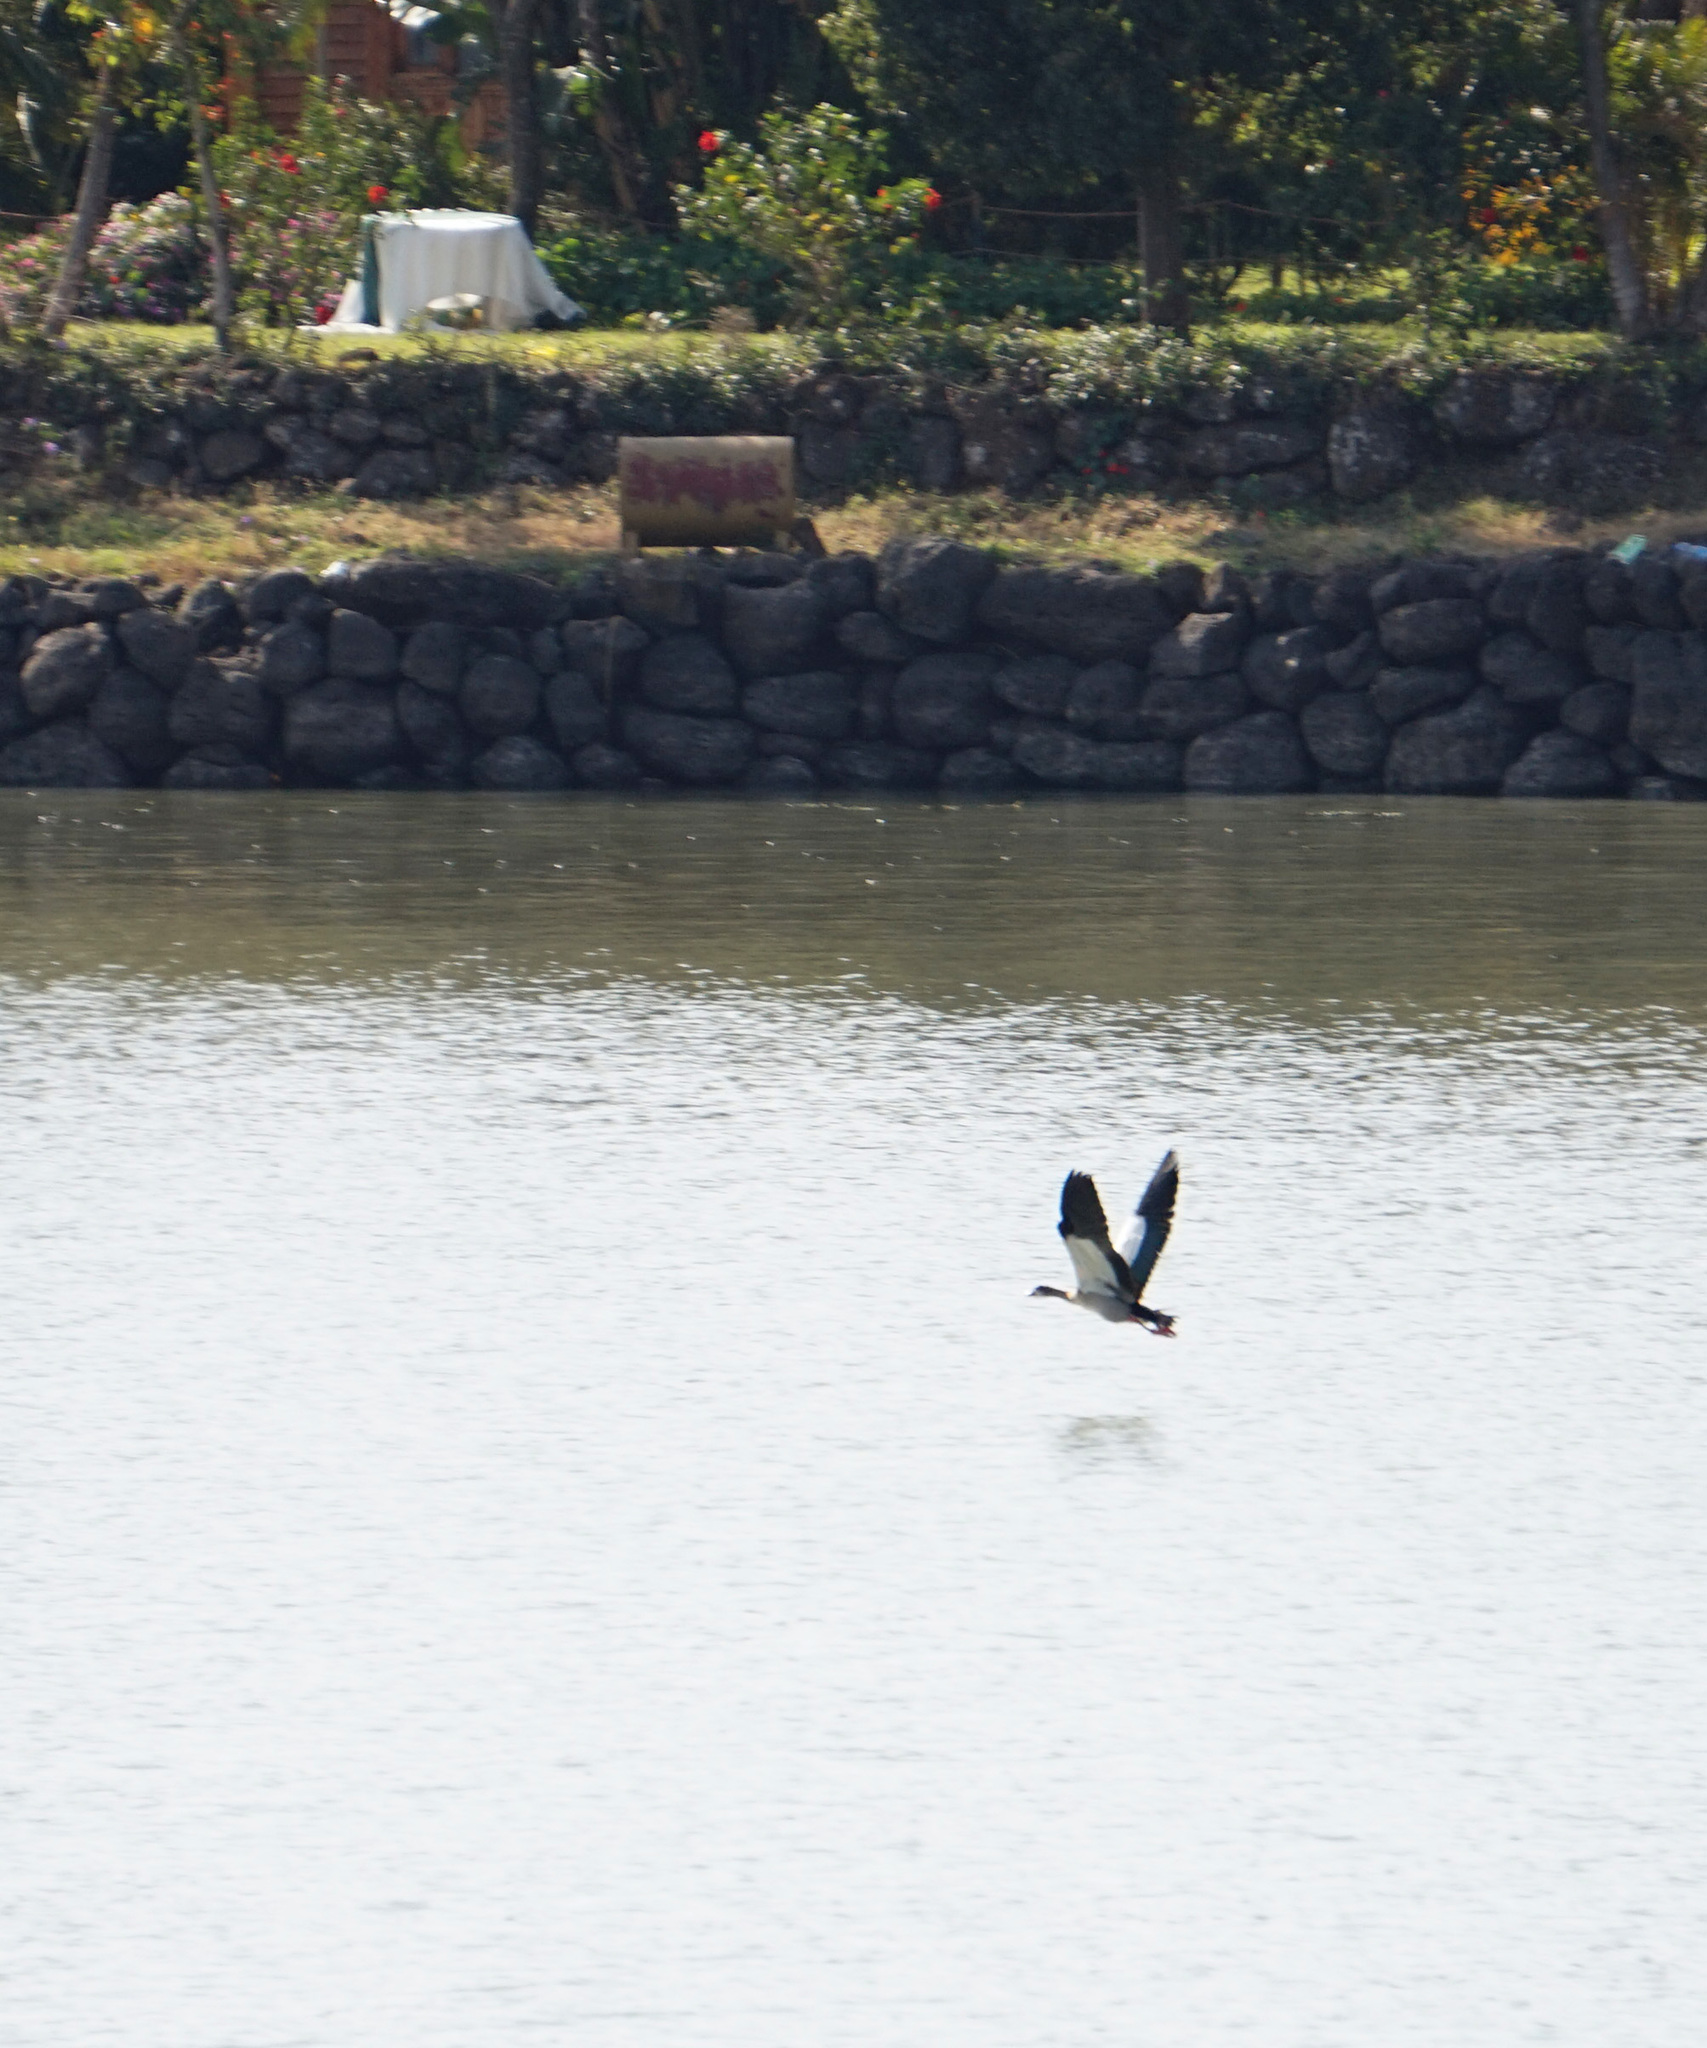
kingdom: Animalia
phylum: Chordata
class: Aves
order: Anseriformes
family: Anatidae
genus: Alopochen
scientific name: Alopochen aegyptiaca
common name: Egyptian goose
